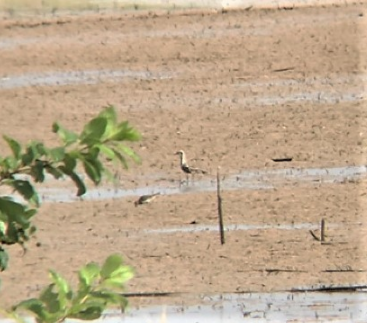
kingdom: Animalia
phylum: Chordata
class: Aves
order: Charadriiformes
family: Charadriidae
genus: Pluvialis
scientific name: Pluvialis dominica
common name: American golden plover
